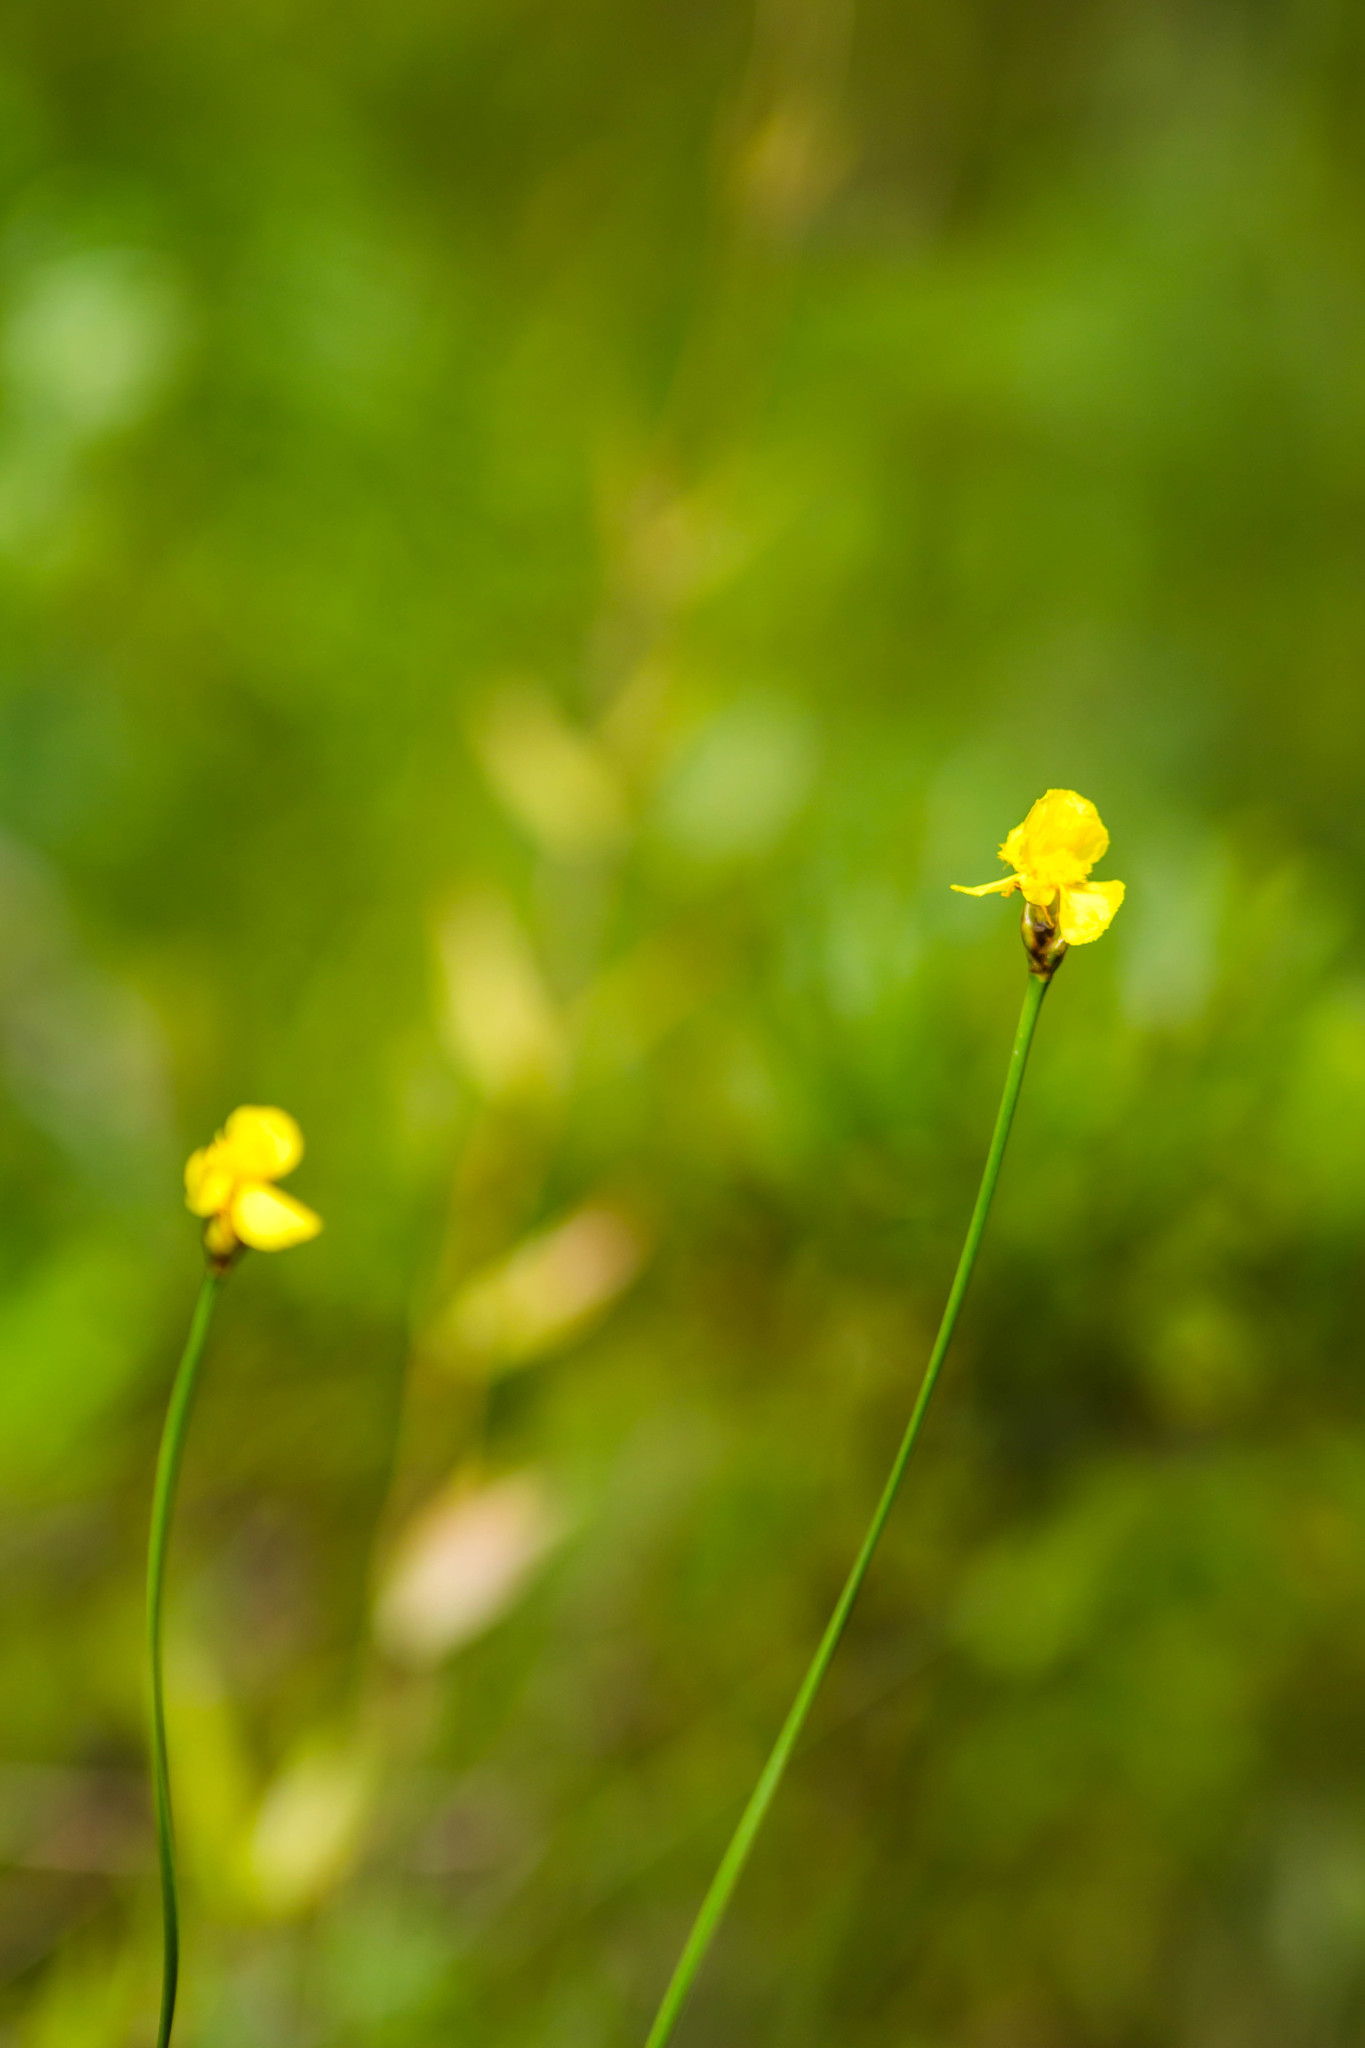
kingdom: Plantae
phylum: Tracheophyta
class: Liliopsida
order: Poales
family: Xyridaceae
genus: Xyris
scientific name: Xyris caroliniana
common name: Carolina yellow-eyed-grass
